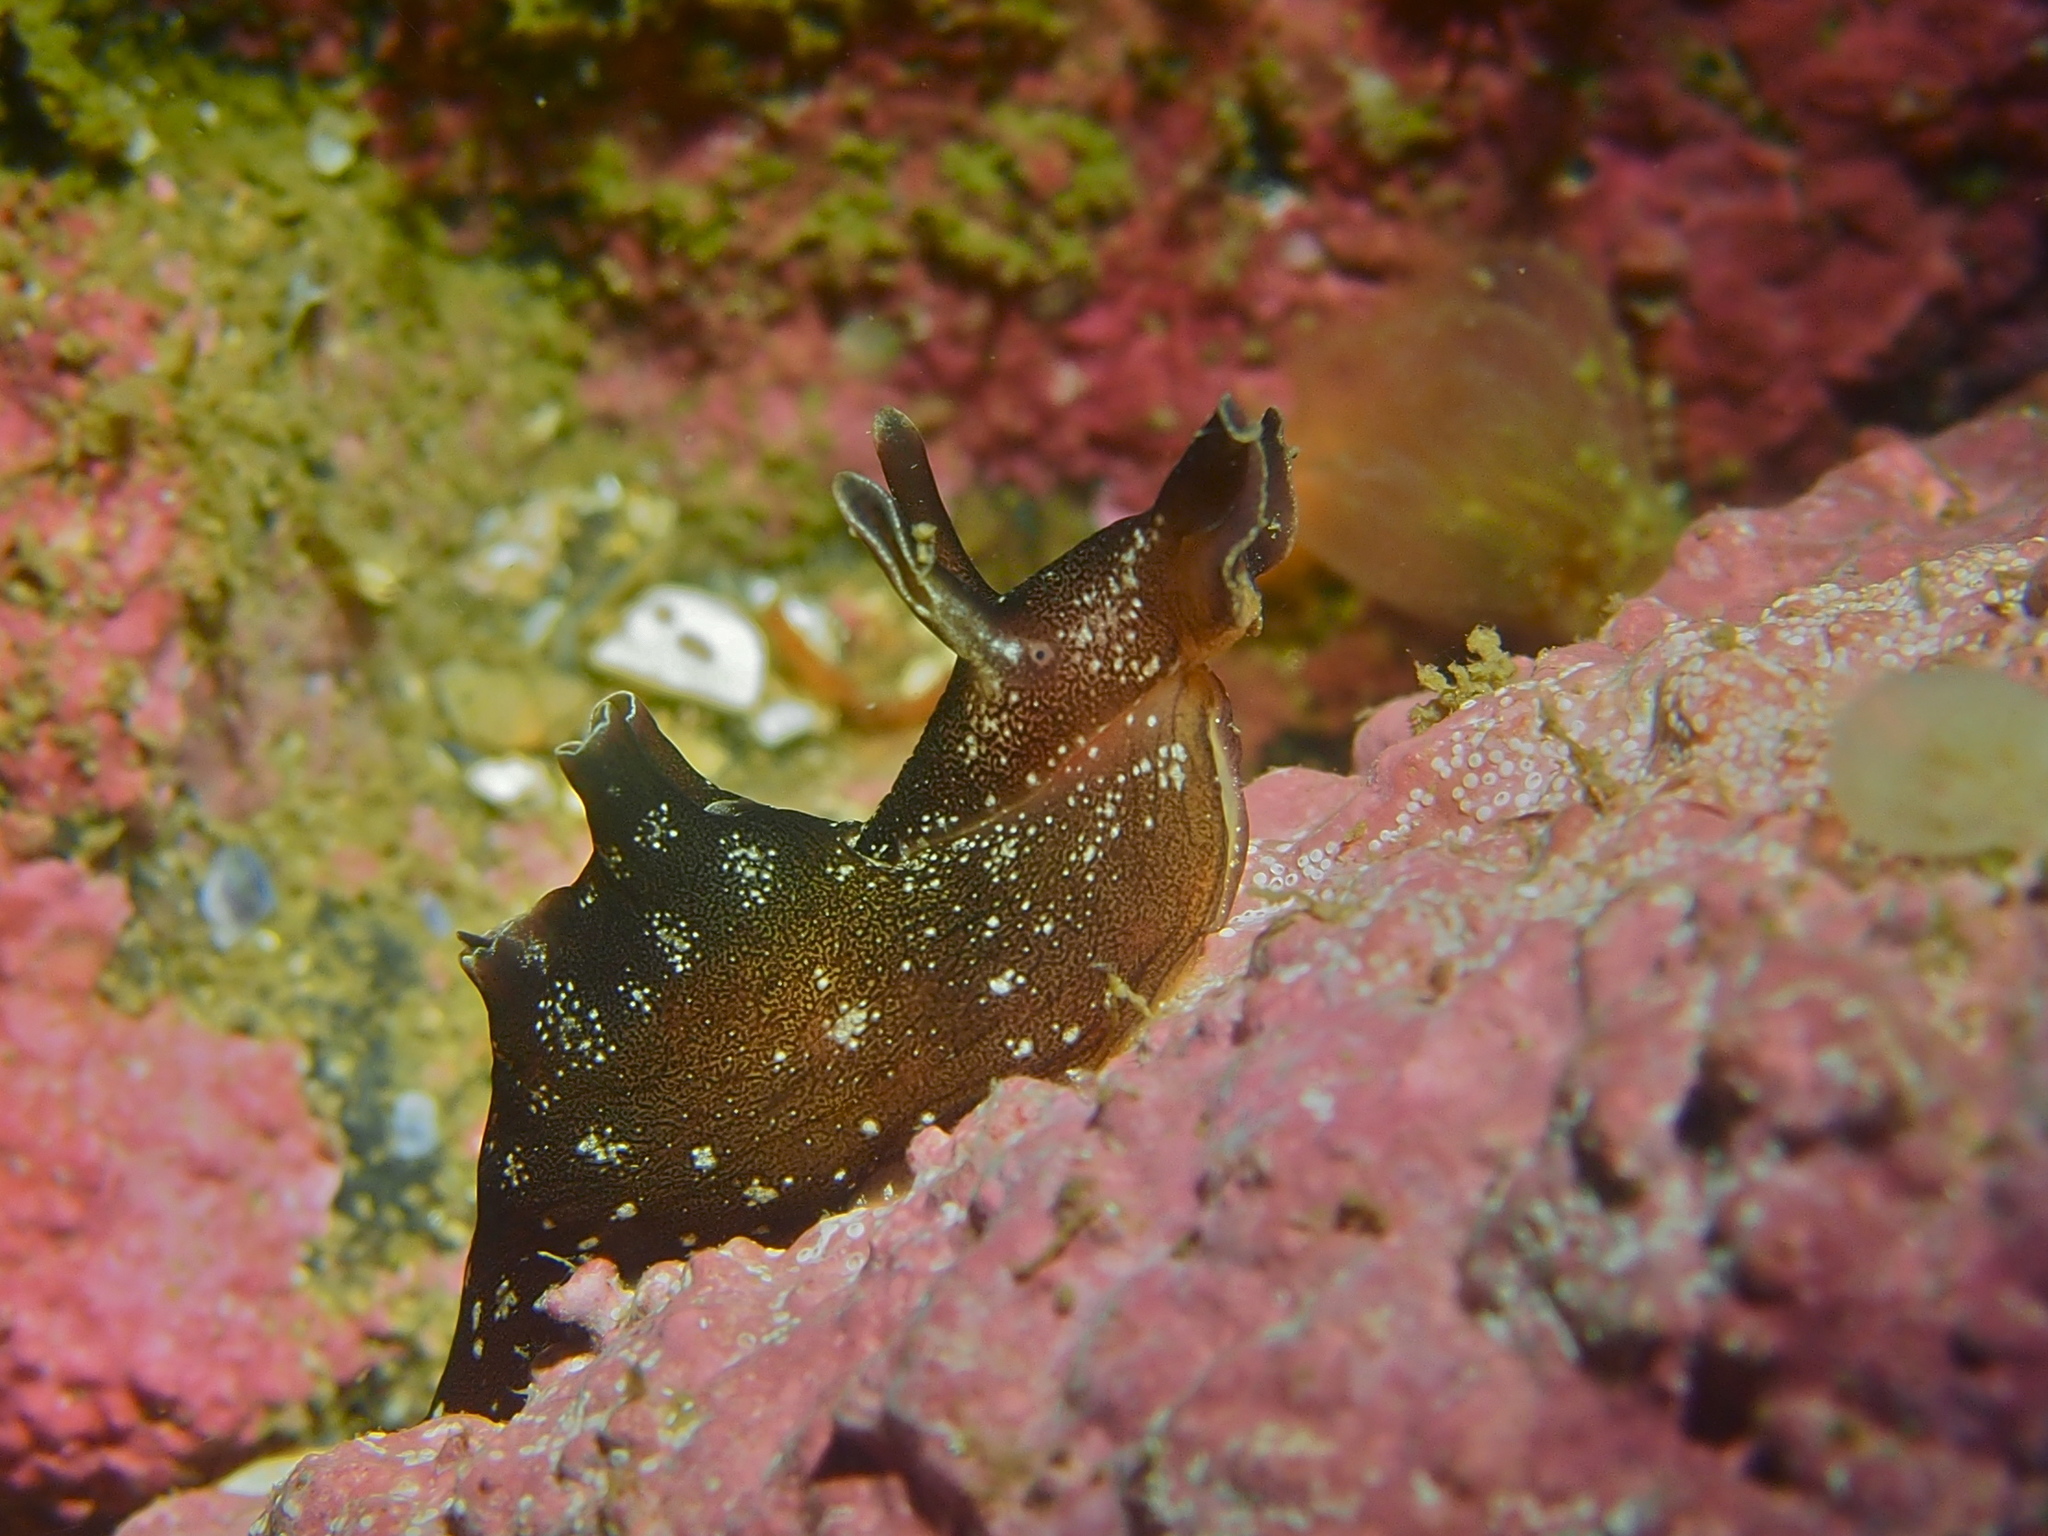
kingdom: Animalia
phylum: Mollusca
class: Gastropoda
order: Aplysiida
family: Aplysiidae
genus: Aplysia
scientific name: Aplysia punctata
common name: Common sea hare
